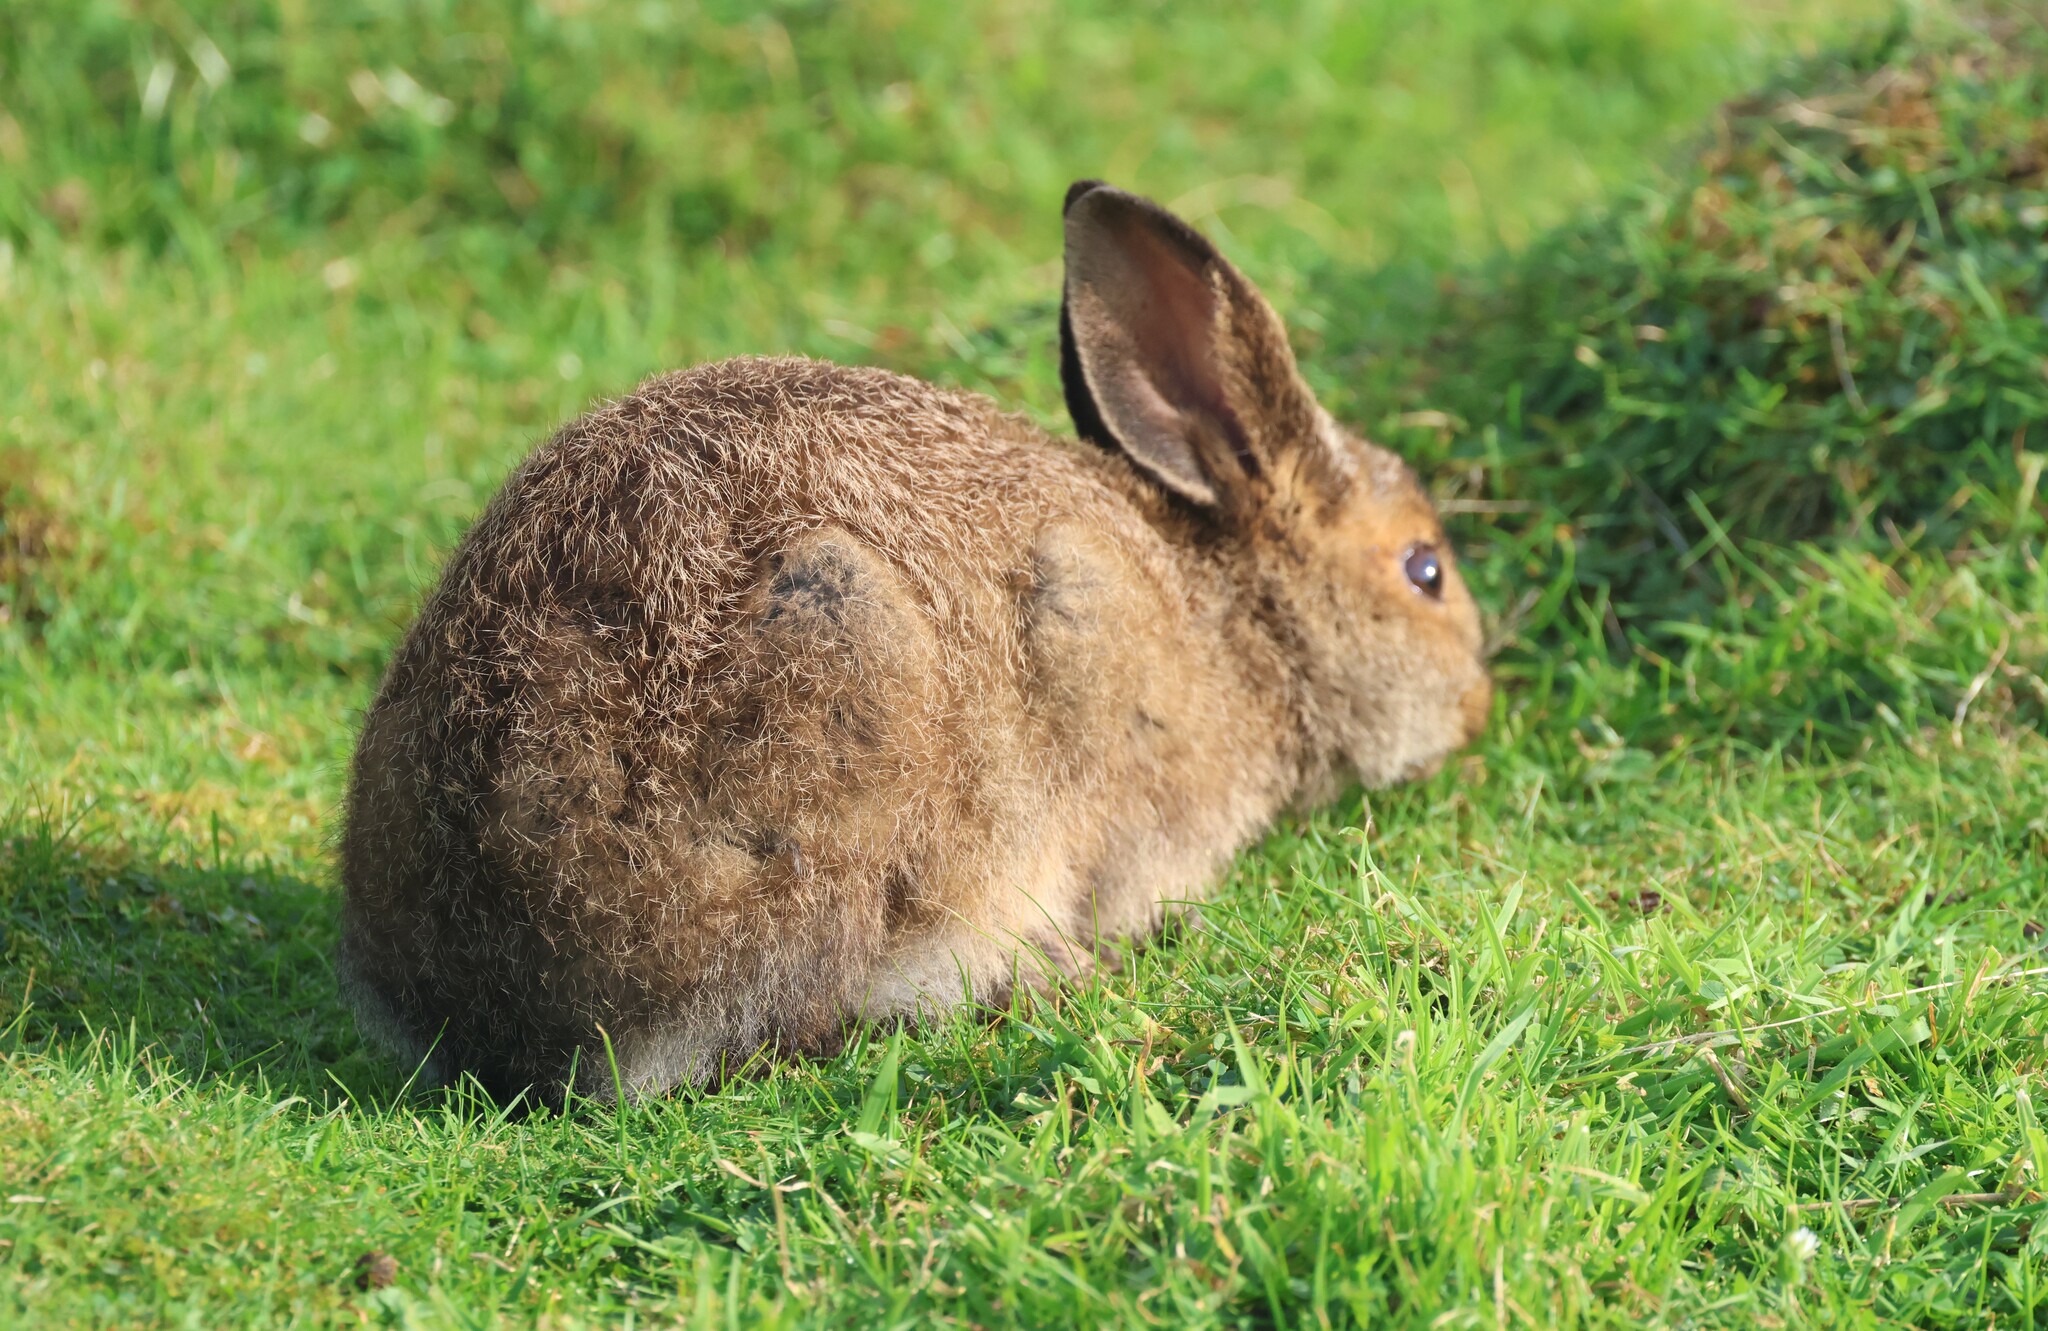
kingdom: Animalia
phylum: Chordata
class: Mammalia
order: Lagomorpha
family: Leporidae
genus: Lepus
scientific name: Lepus americanus
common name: Snowshoe hare
